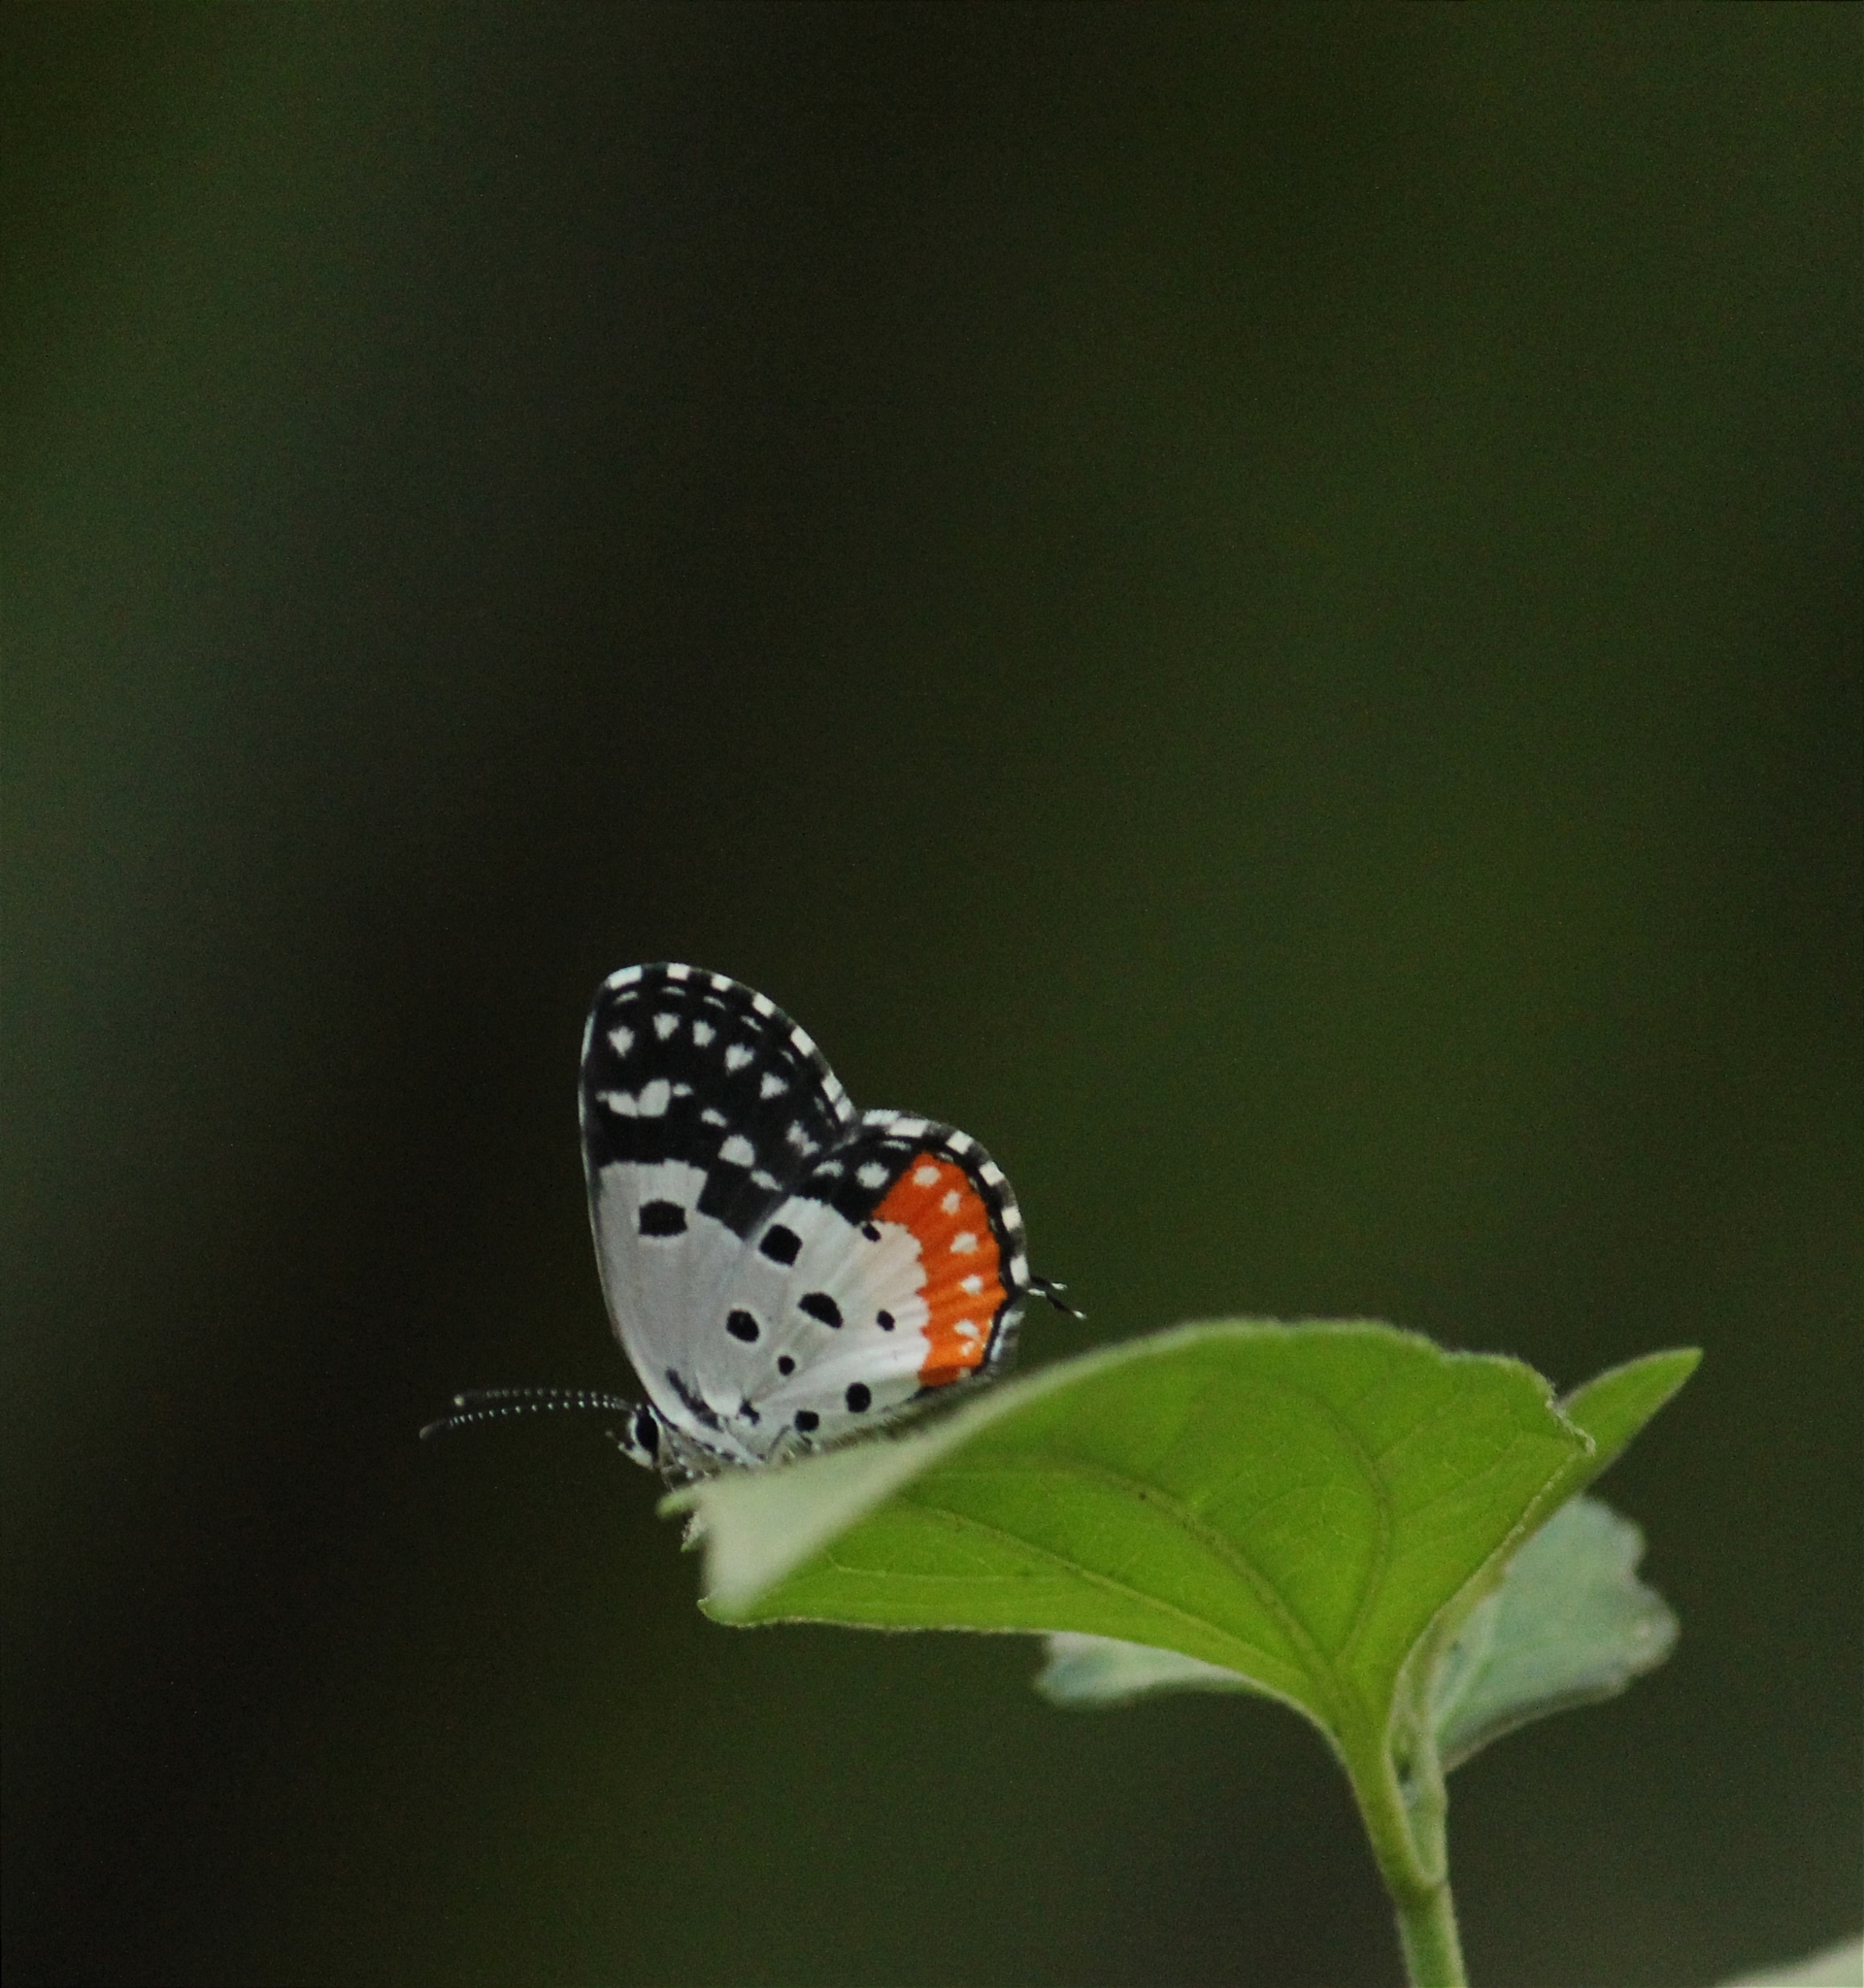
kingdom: Animalia
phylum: Arthropoda
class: Insecta
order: Lepidoptera
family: Lycaenidae
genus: Talicada
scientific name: Talicada nyseus
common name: Red pierrot
